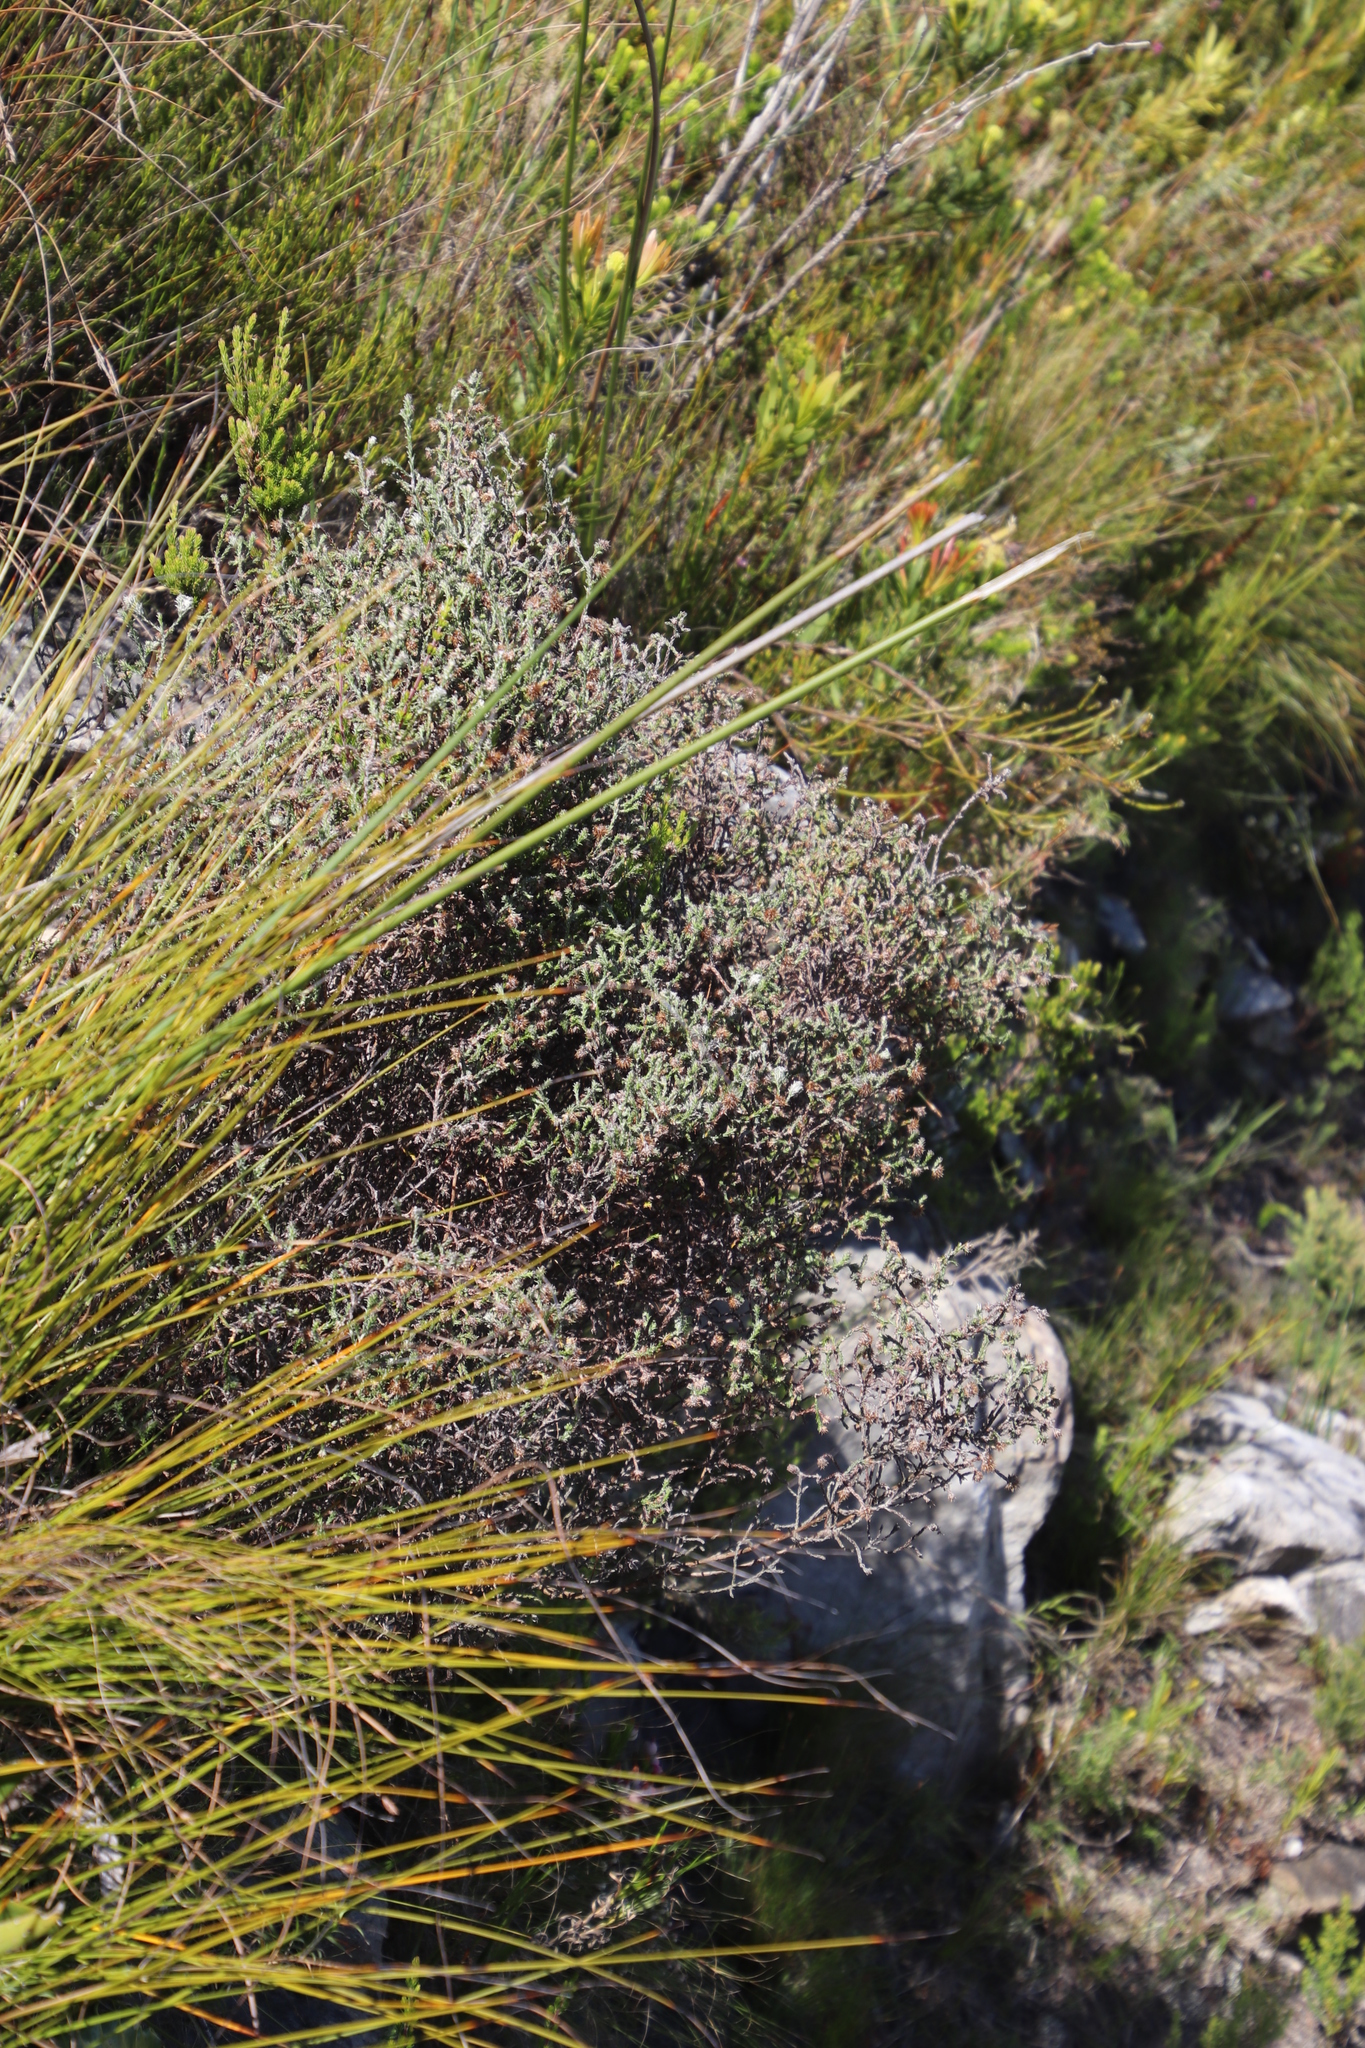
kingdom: Plantae
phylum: Tracheophyta
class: Magnoliopsida
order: Asterales
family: Asteraceae
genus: Seriphium
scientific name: Seriphium incanum
